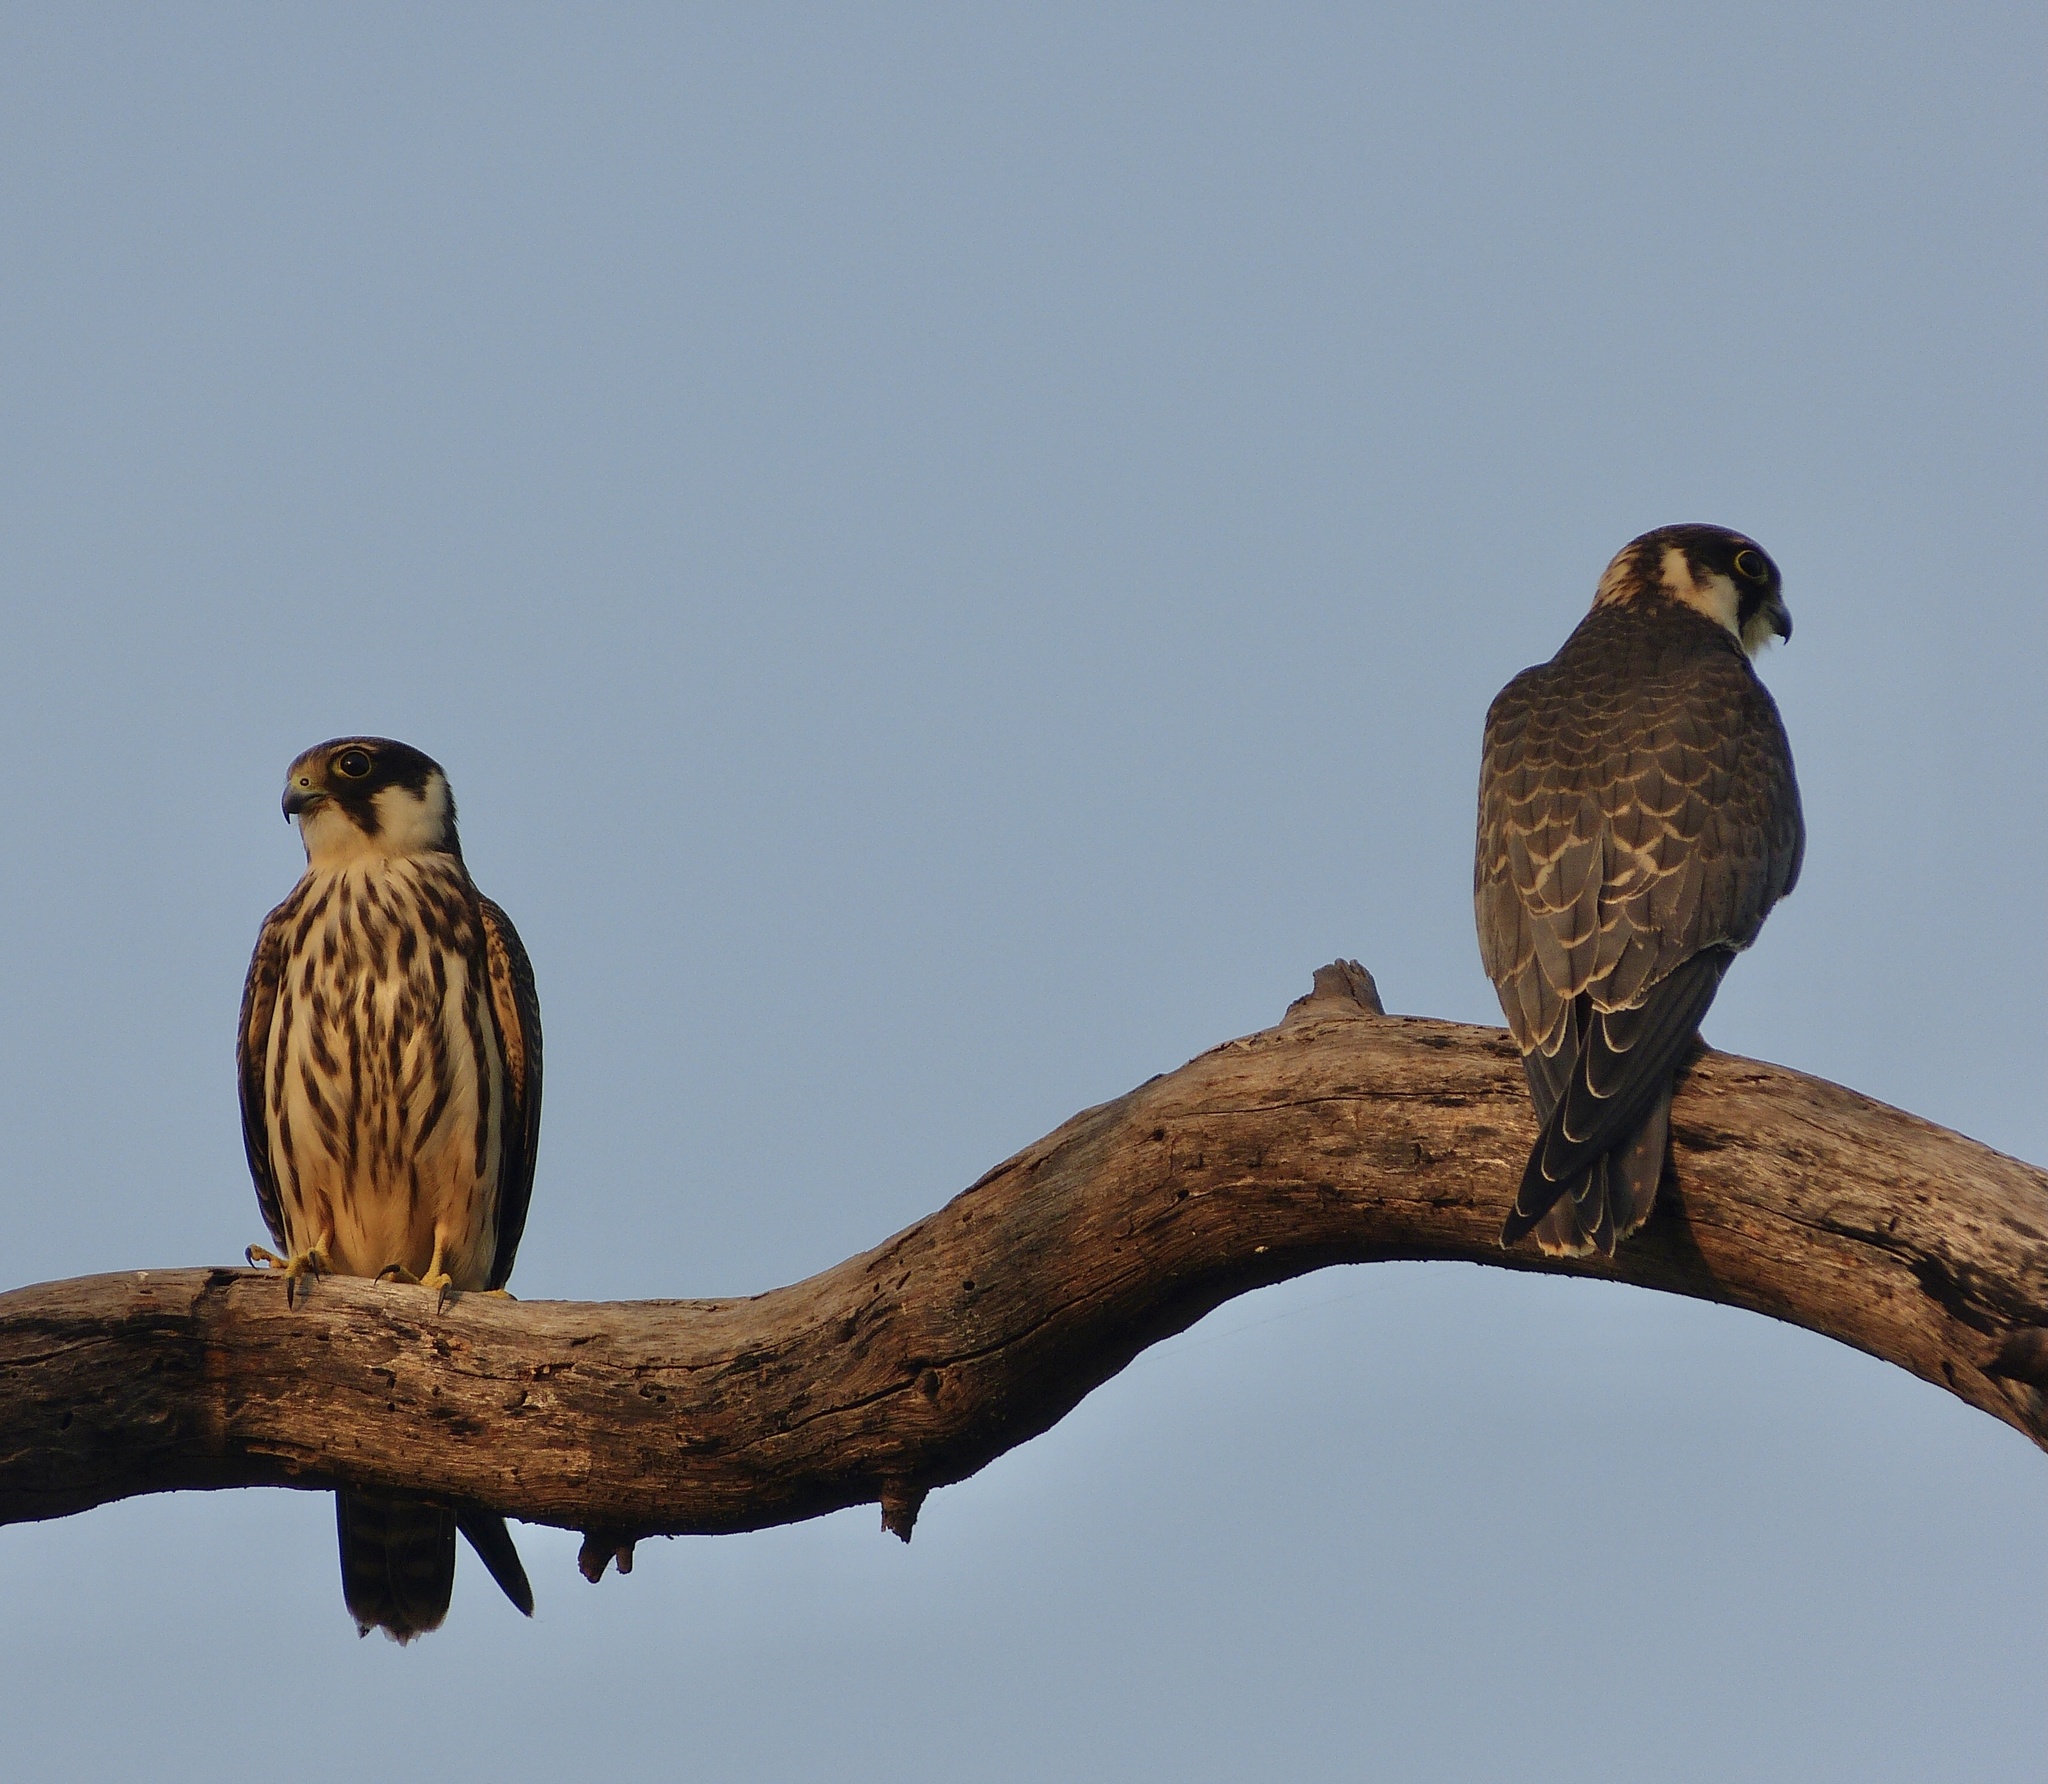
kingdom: Animalia
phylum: Chordata
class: Aves
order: Falconiformes
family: Falconidae
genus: Falco
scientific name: Falco subbuteo
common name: Eurasian hobby
